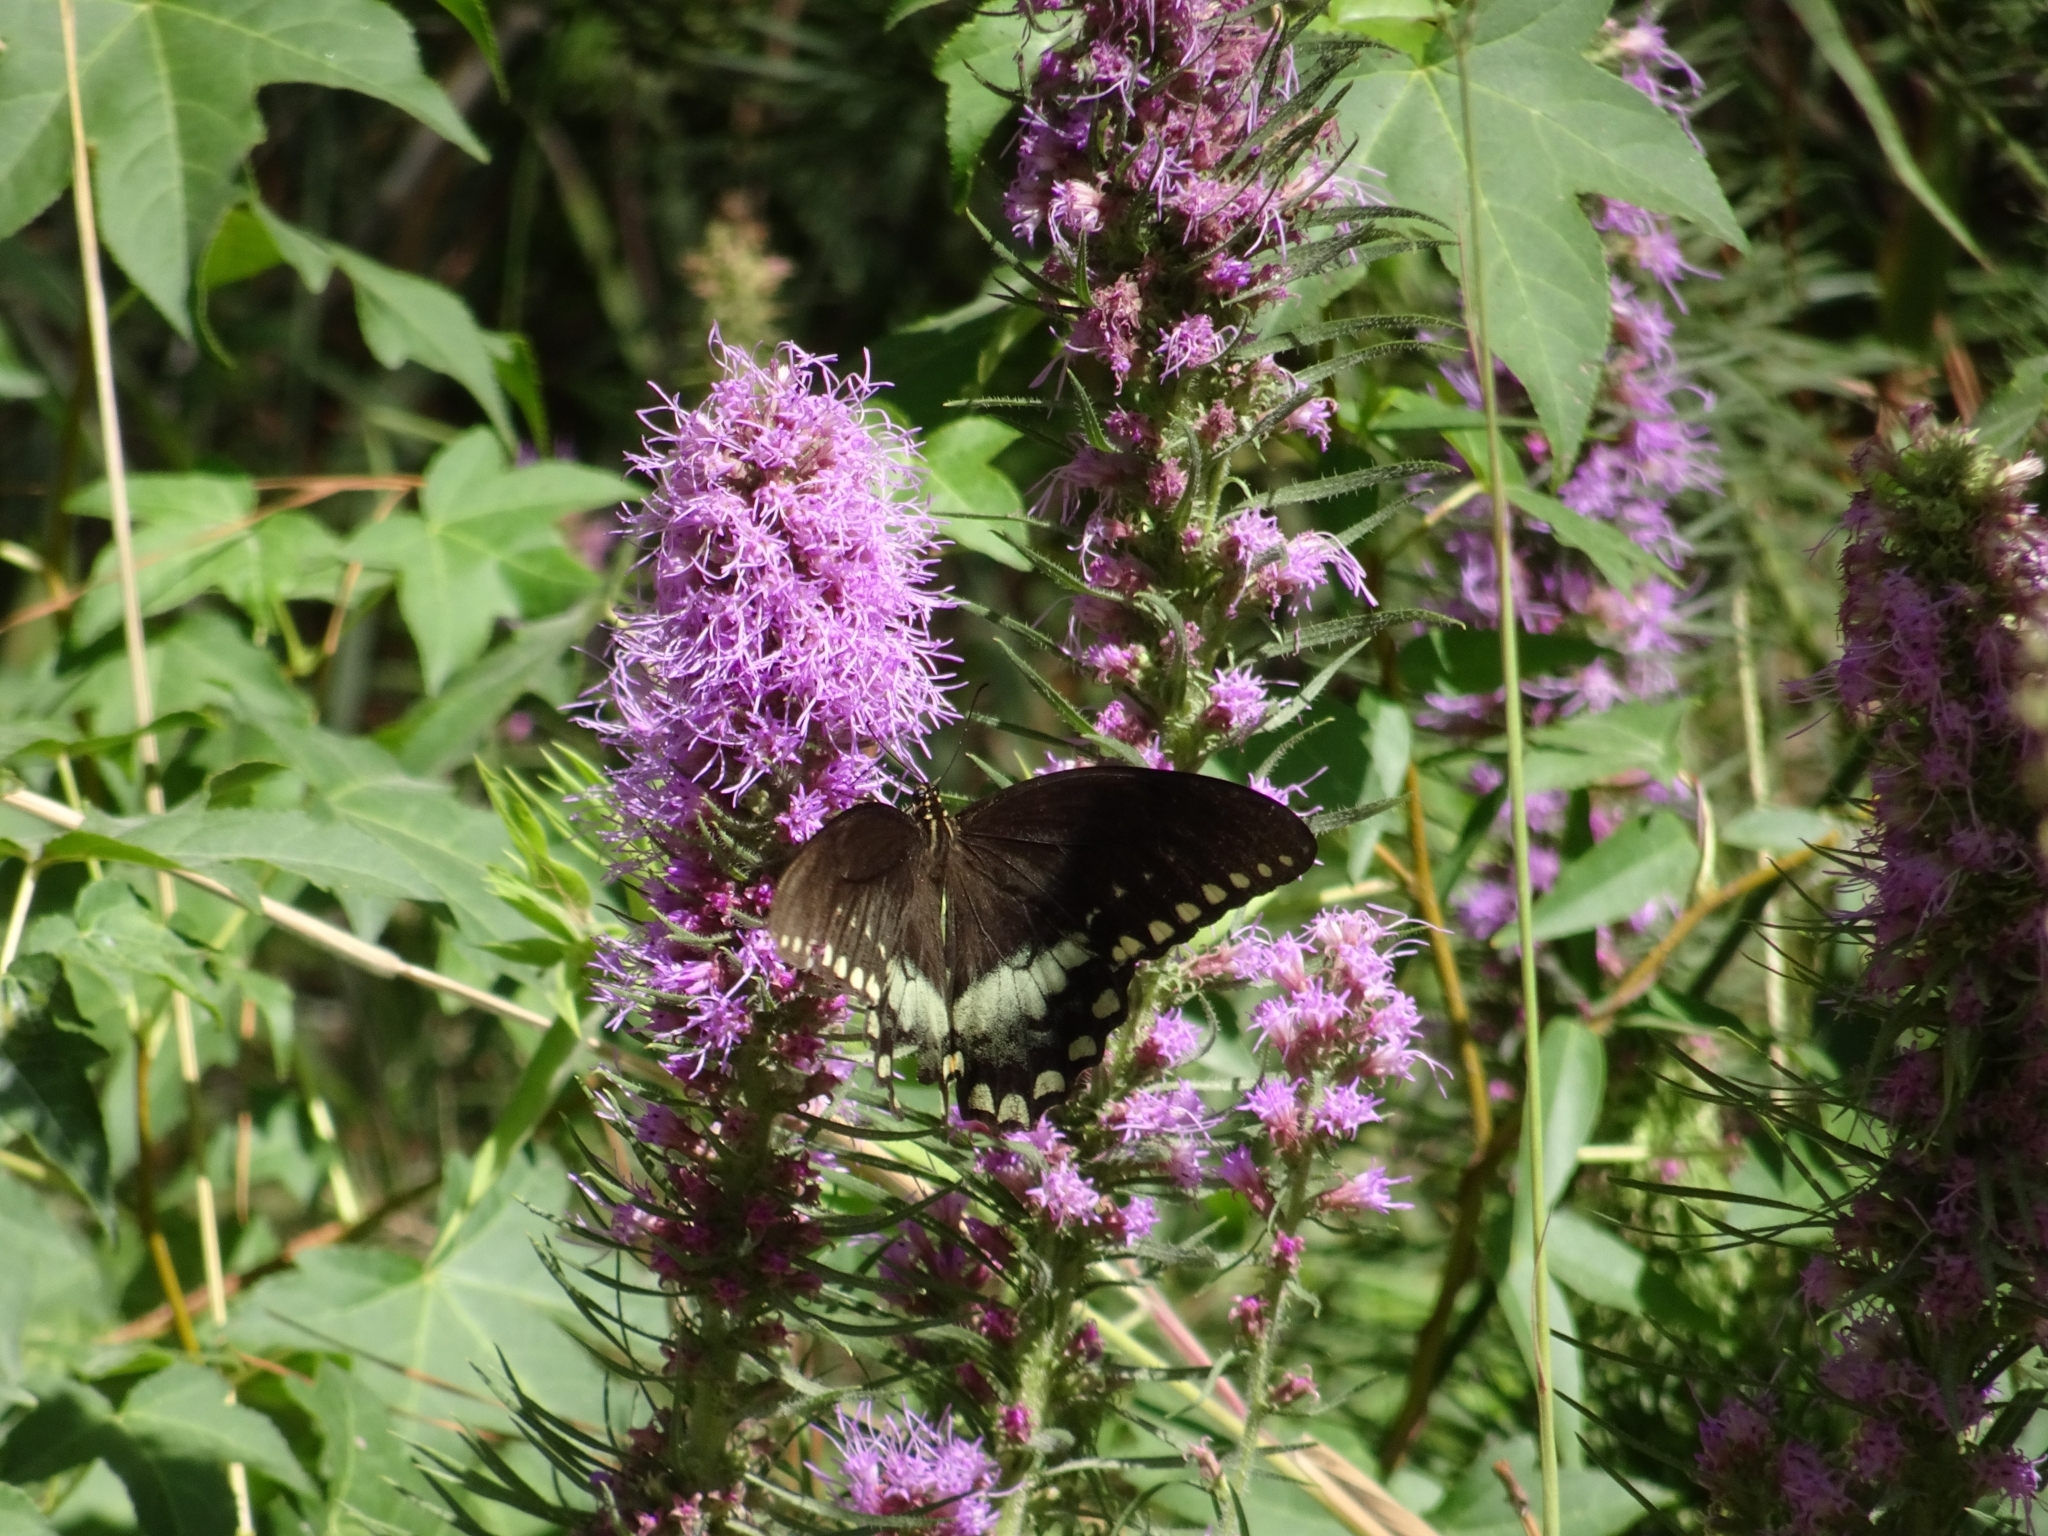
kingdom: Animalia
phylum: Arthropoda
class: Insecta
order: Lepidoptera
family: Papilionidae
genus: Papilio
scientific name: Papilio troilus
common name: Spicebush swallowtail
